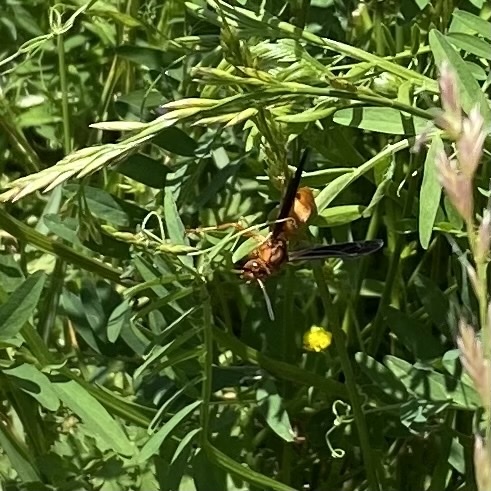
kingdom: Animalia
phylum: Arthropoda
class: Insecta
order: Hymenoptera
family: Vespidae
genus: Fuscopolistes
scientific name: Fuscopolistes
